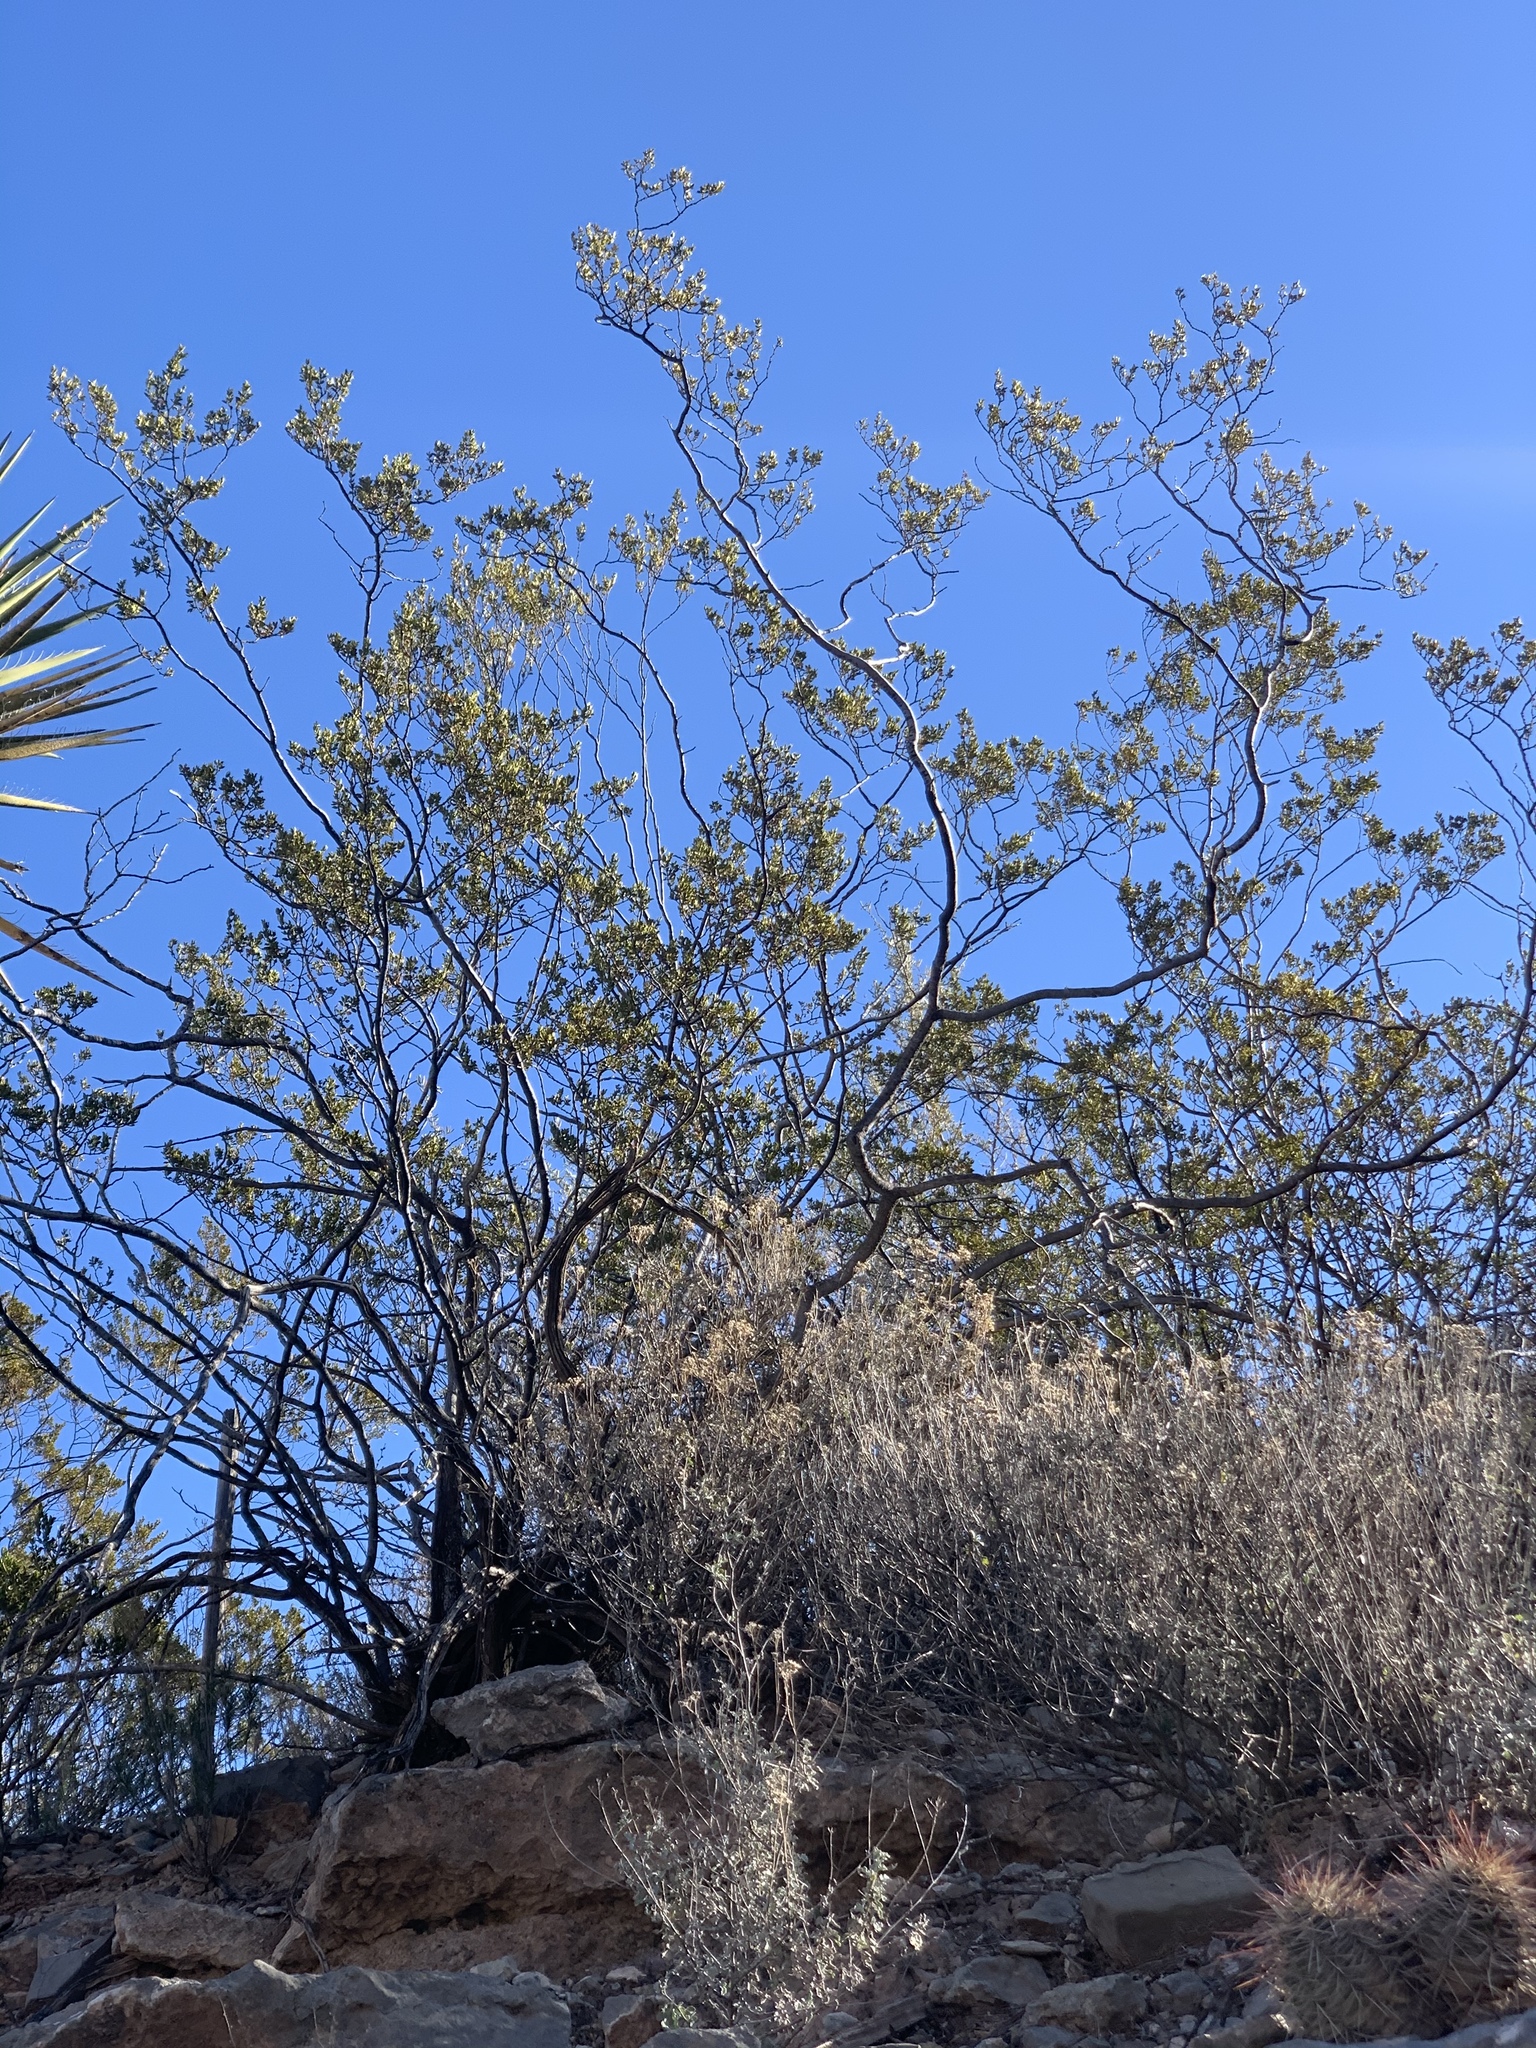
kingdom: Plantae
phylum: Tracheophyta
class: Magnoliopsida
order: Zygophyllales
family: Zygophyllaceae
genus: Larrea
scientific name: Larrea tridentata
